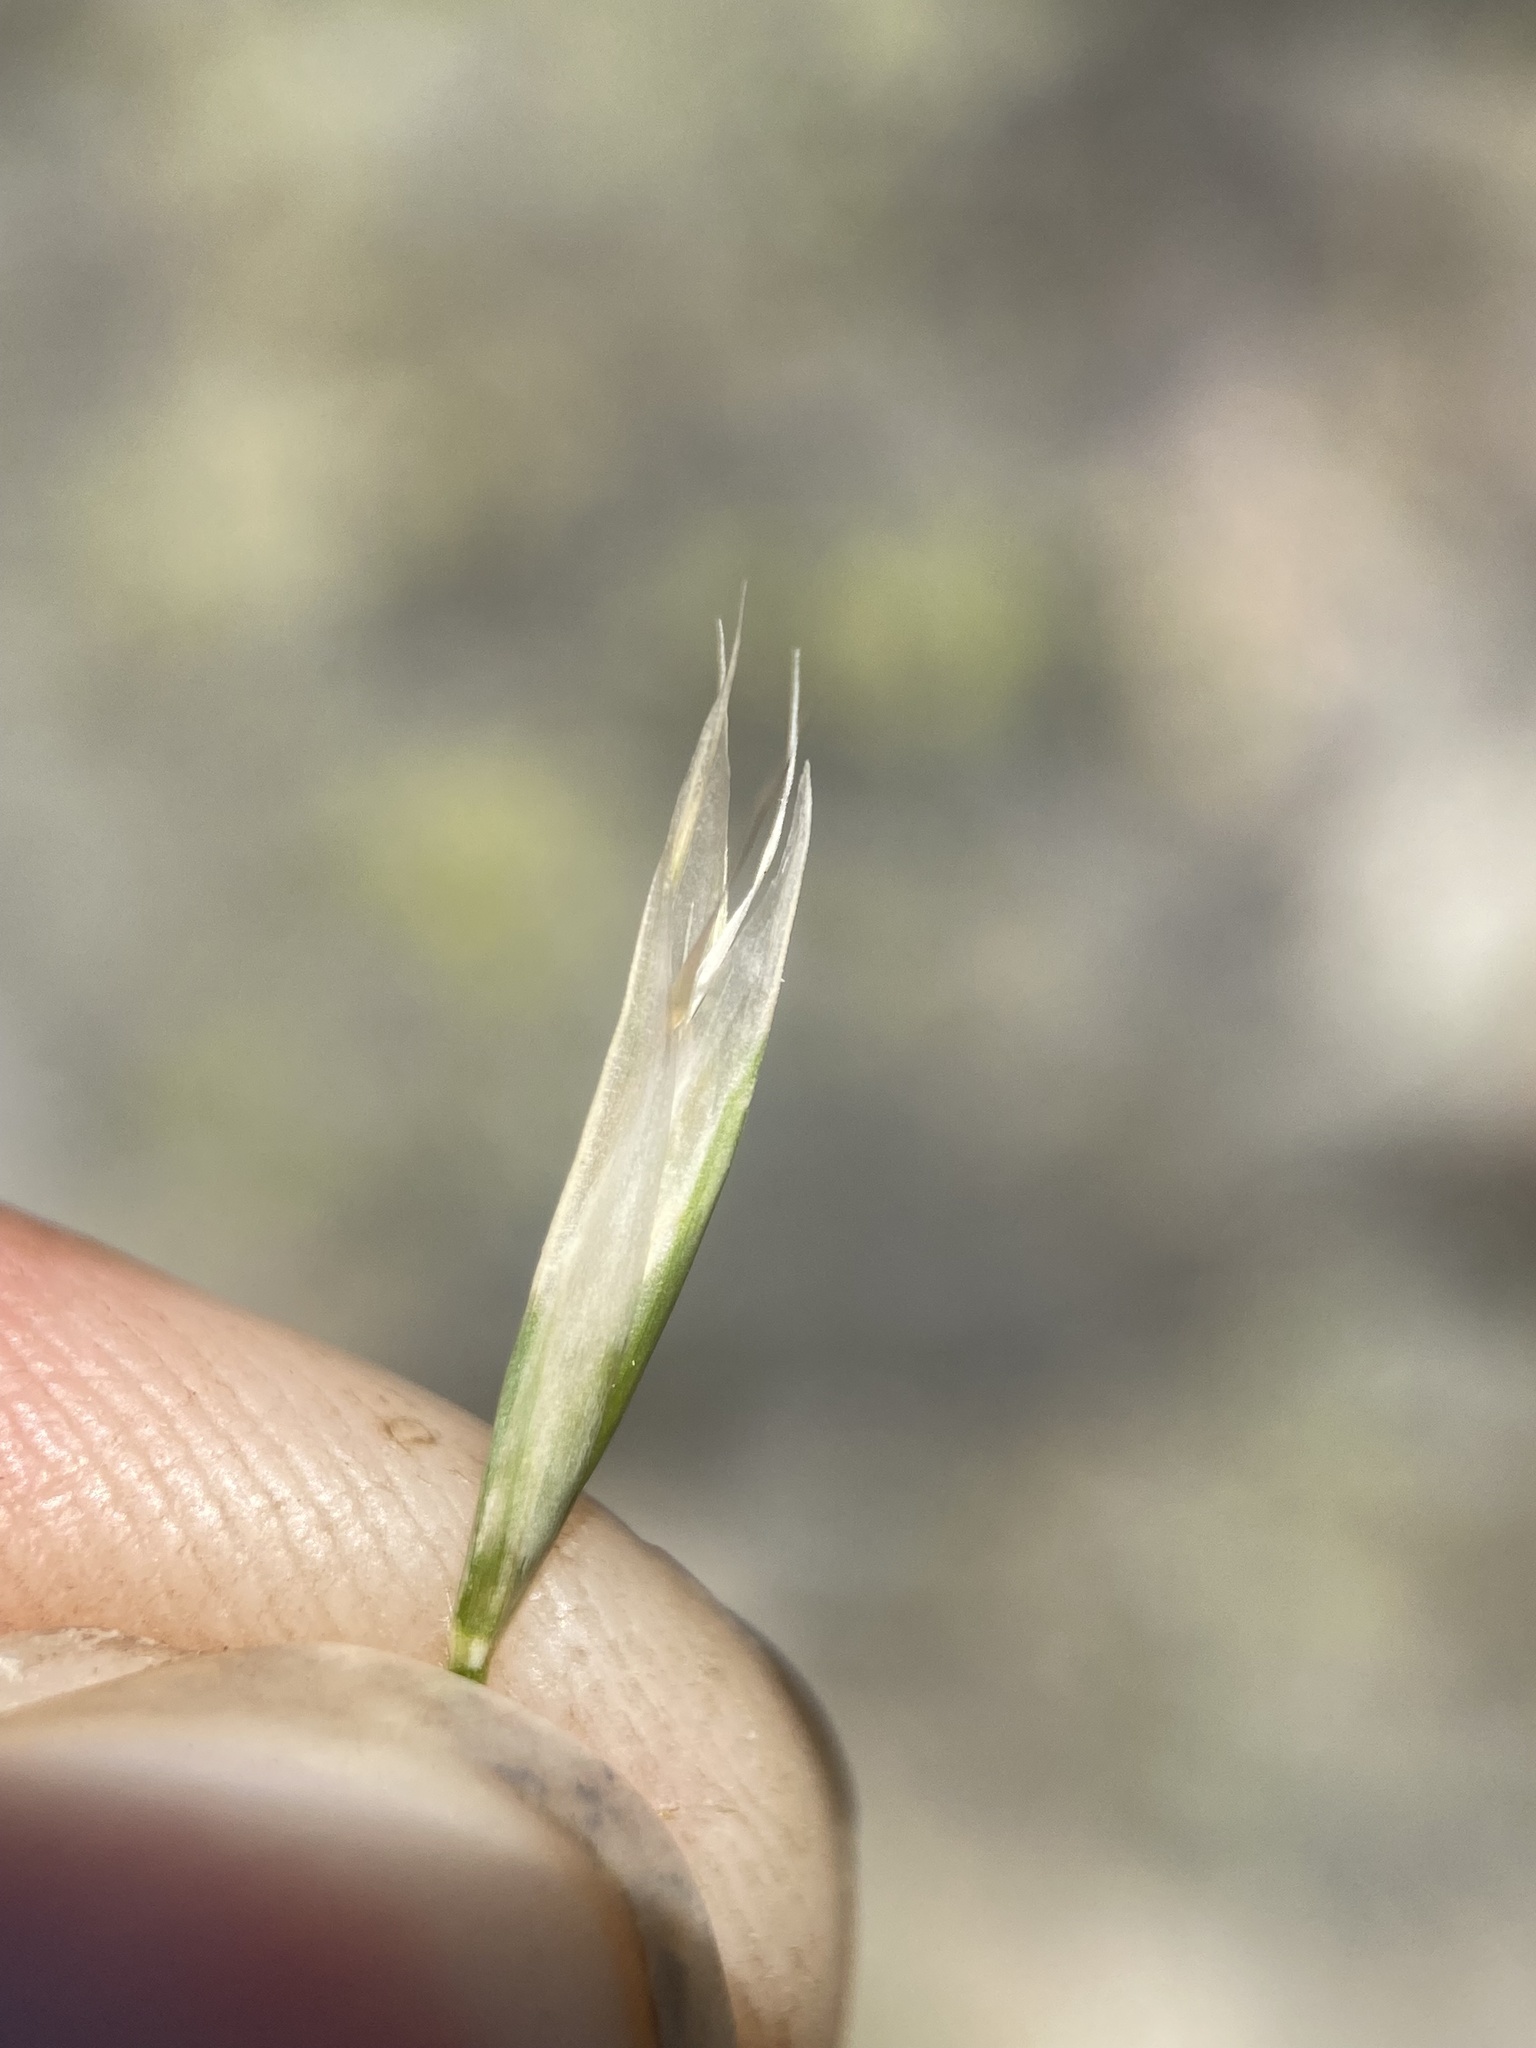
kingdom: Plantae
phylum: Tracheophyta
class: Liliopsida
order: Poales
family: Poaceae
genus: Danthonia
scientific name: Danthonia intermedia
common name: Intermediate oat grass
